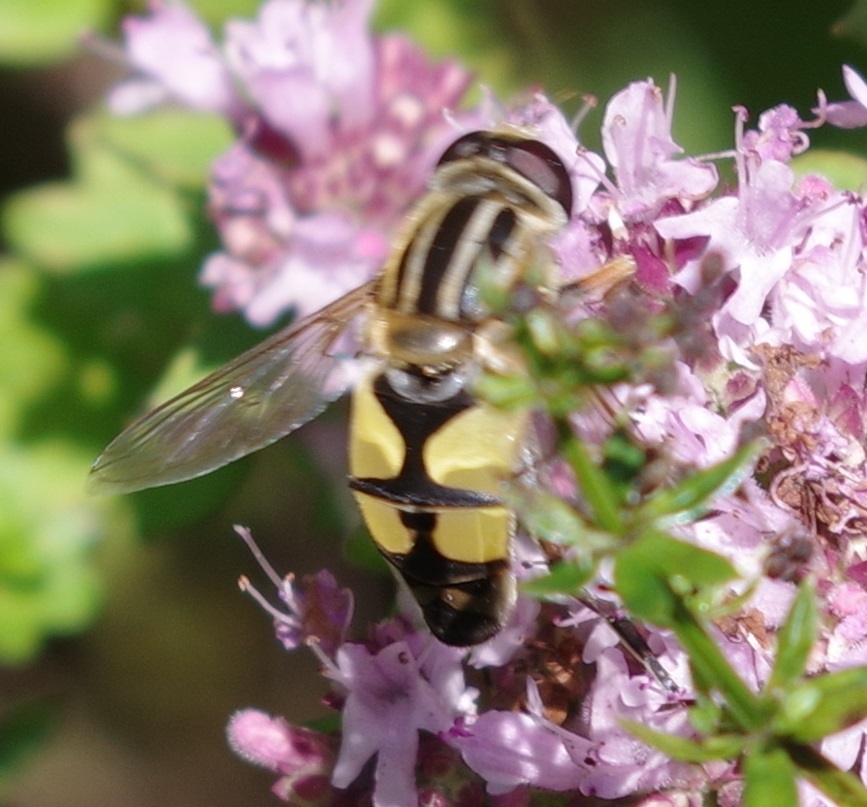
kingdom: Animalia
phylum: Arthropoda
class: Insecta
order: Diptera
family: Syrphidae
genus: Helophilus
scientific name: Helophilus trivittatus
